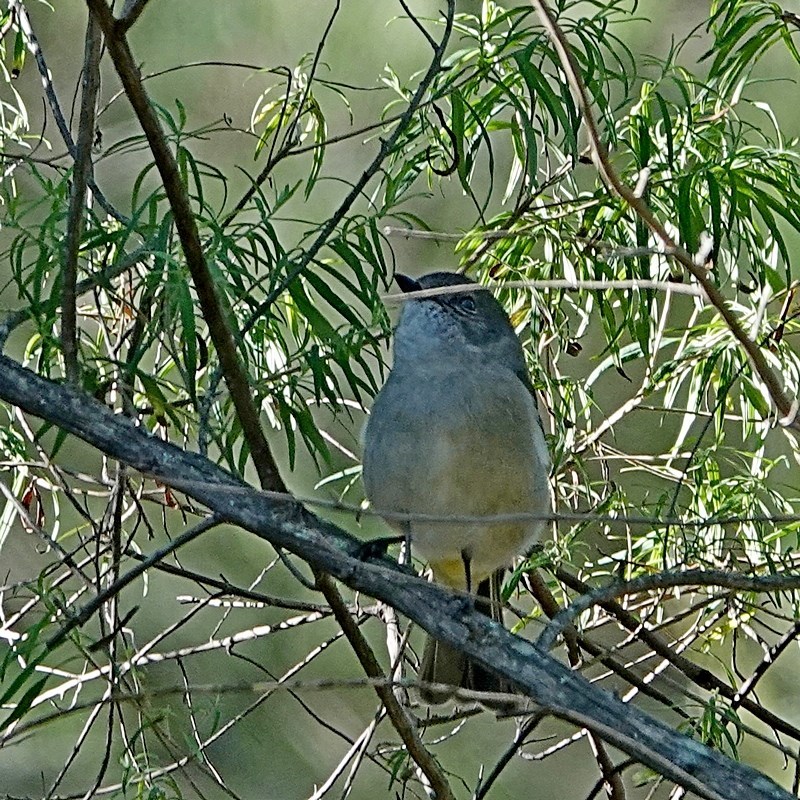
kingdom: Animalia
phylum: Chordata
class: Aves
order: Passeriformes
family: Pachycephalidae
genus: Pachycephala
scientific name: Pachycephala pectoralis
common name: Australian golden whistler
